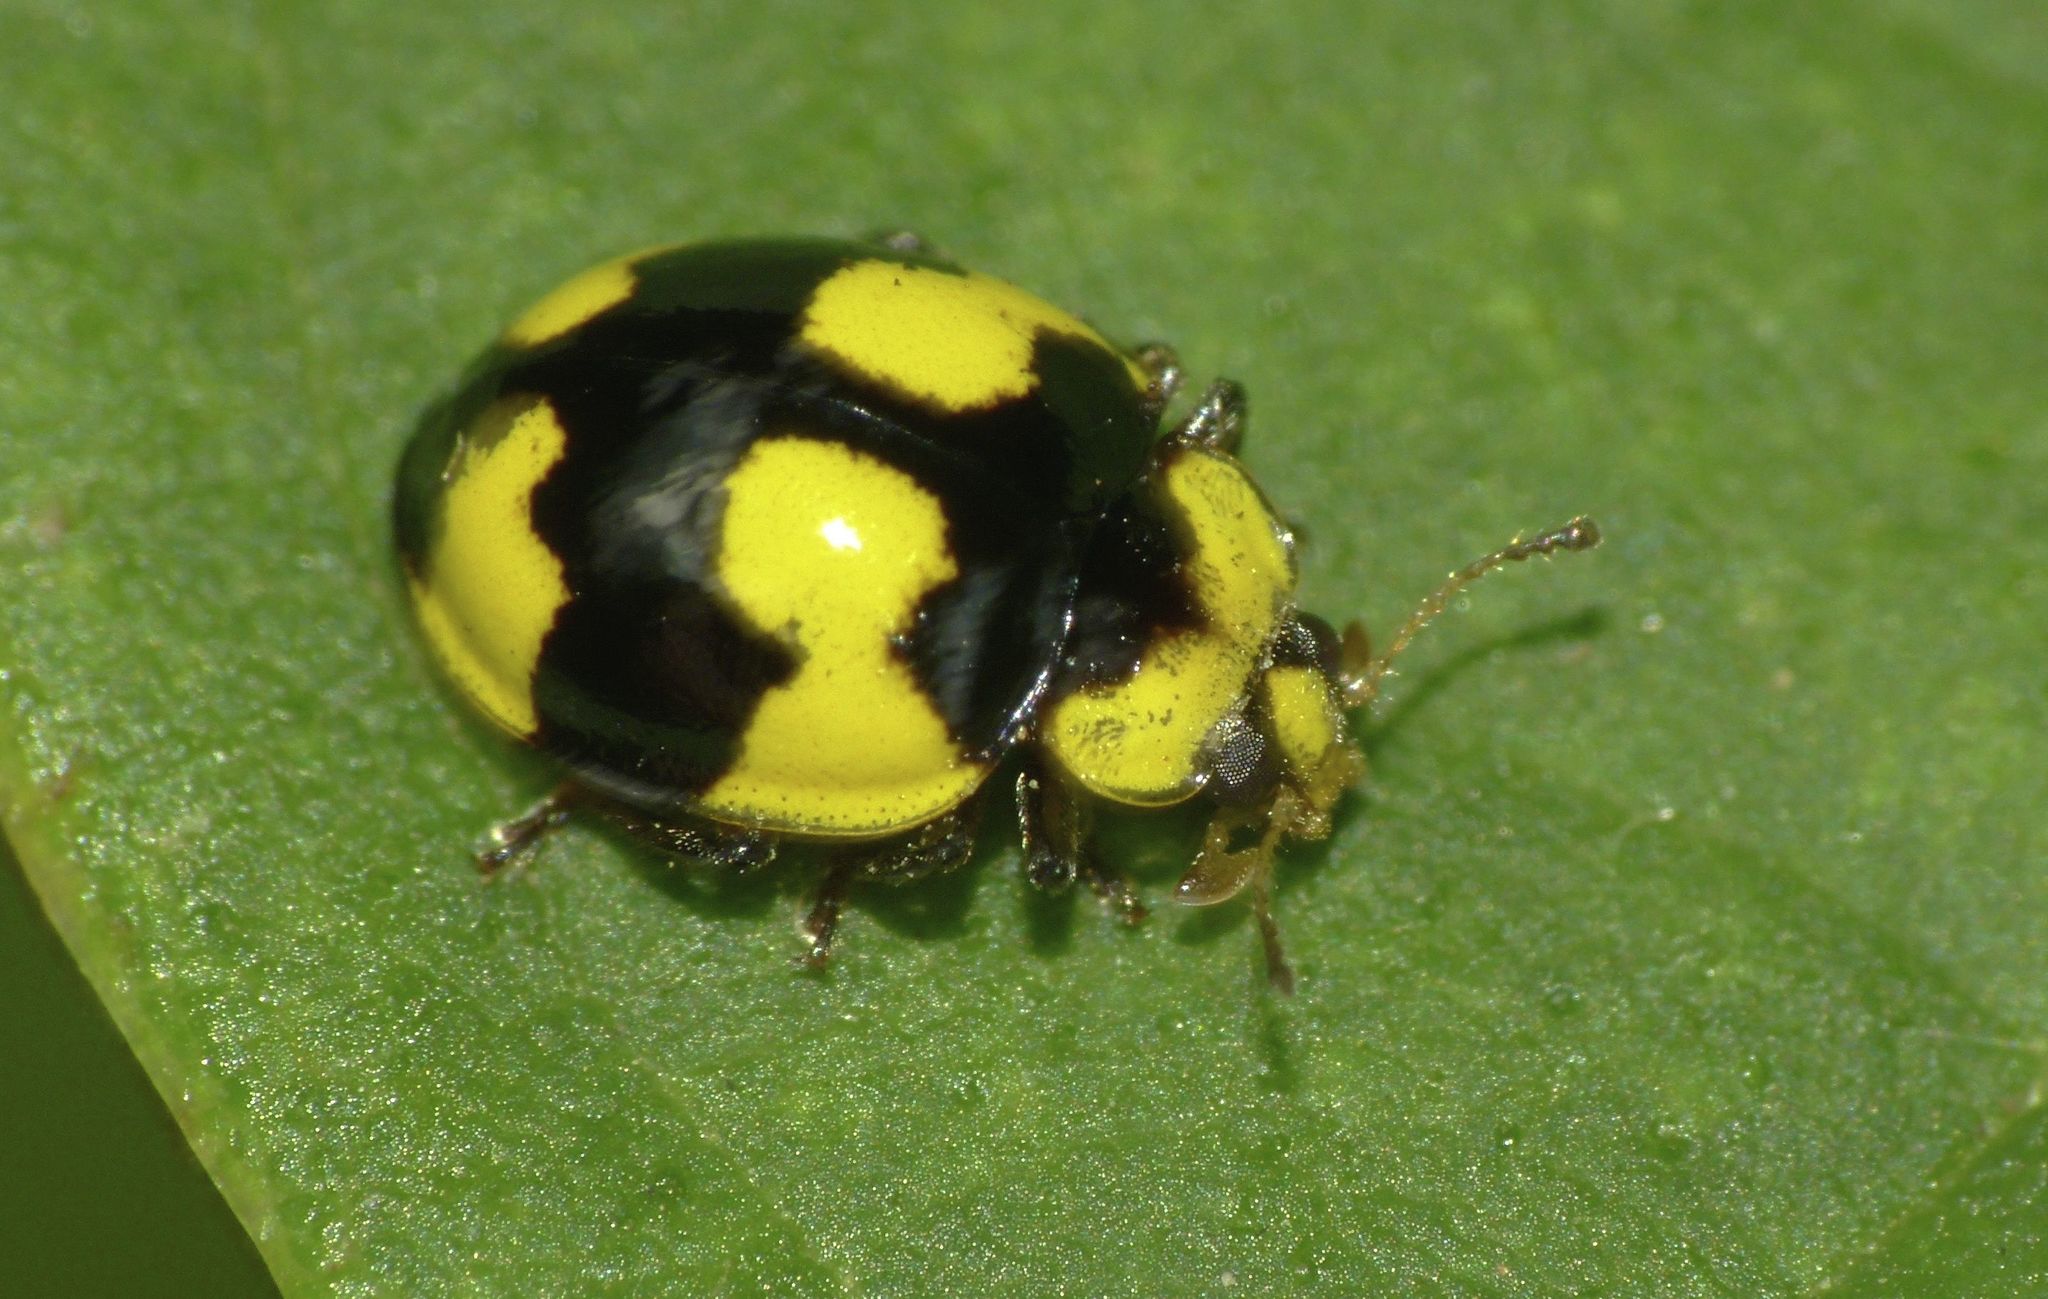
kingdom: Animalia
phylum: Arthropoda
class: Insecta
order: Coleoptera
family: Coccinellidae
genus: Illeis
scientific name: Illeis galbula
